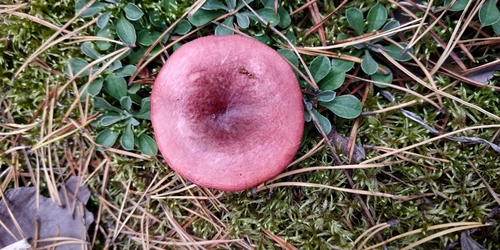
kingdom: Fungi
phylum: Basidiomycota
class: Agaricomycetes
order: Russulales
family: Russulaceae
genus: Russula
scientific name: Russula
